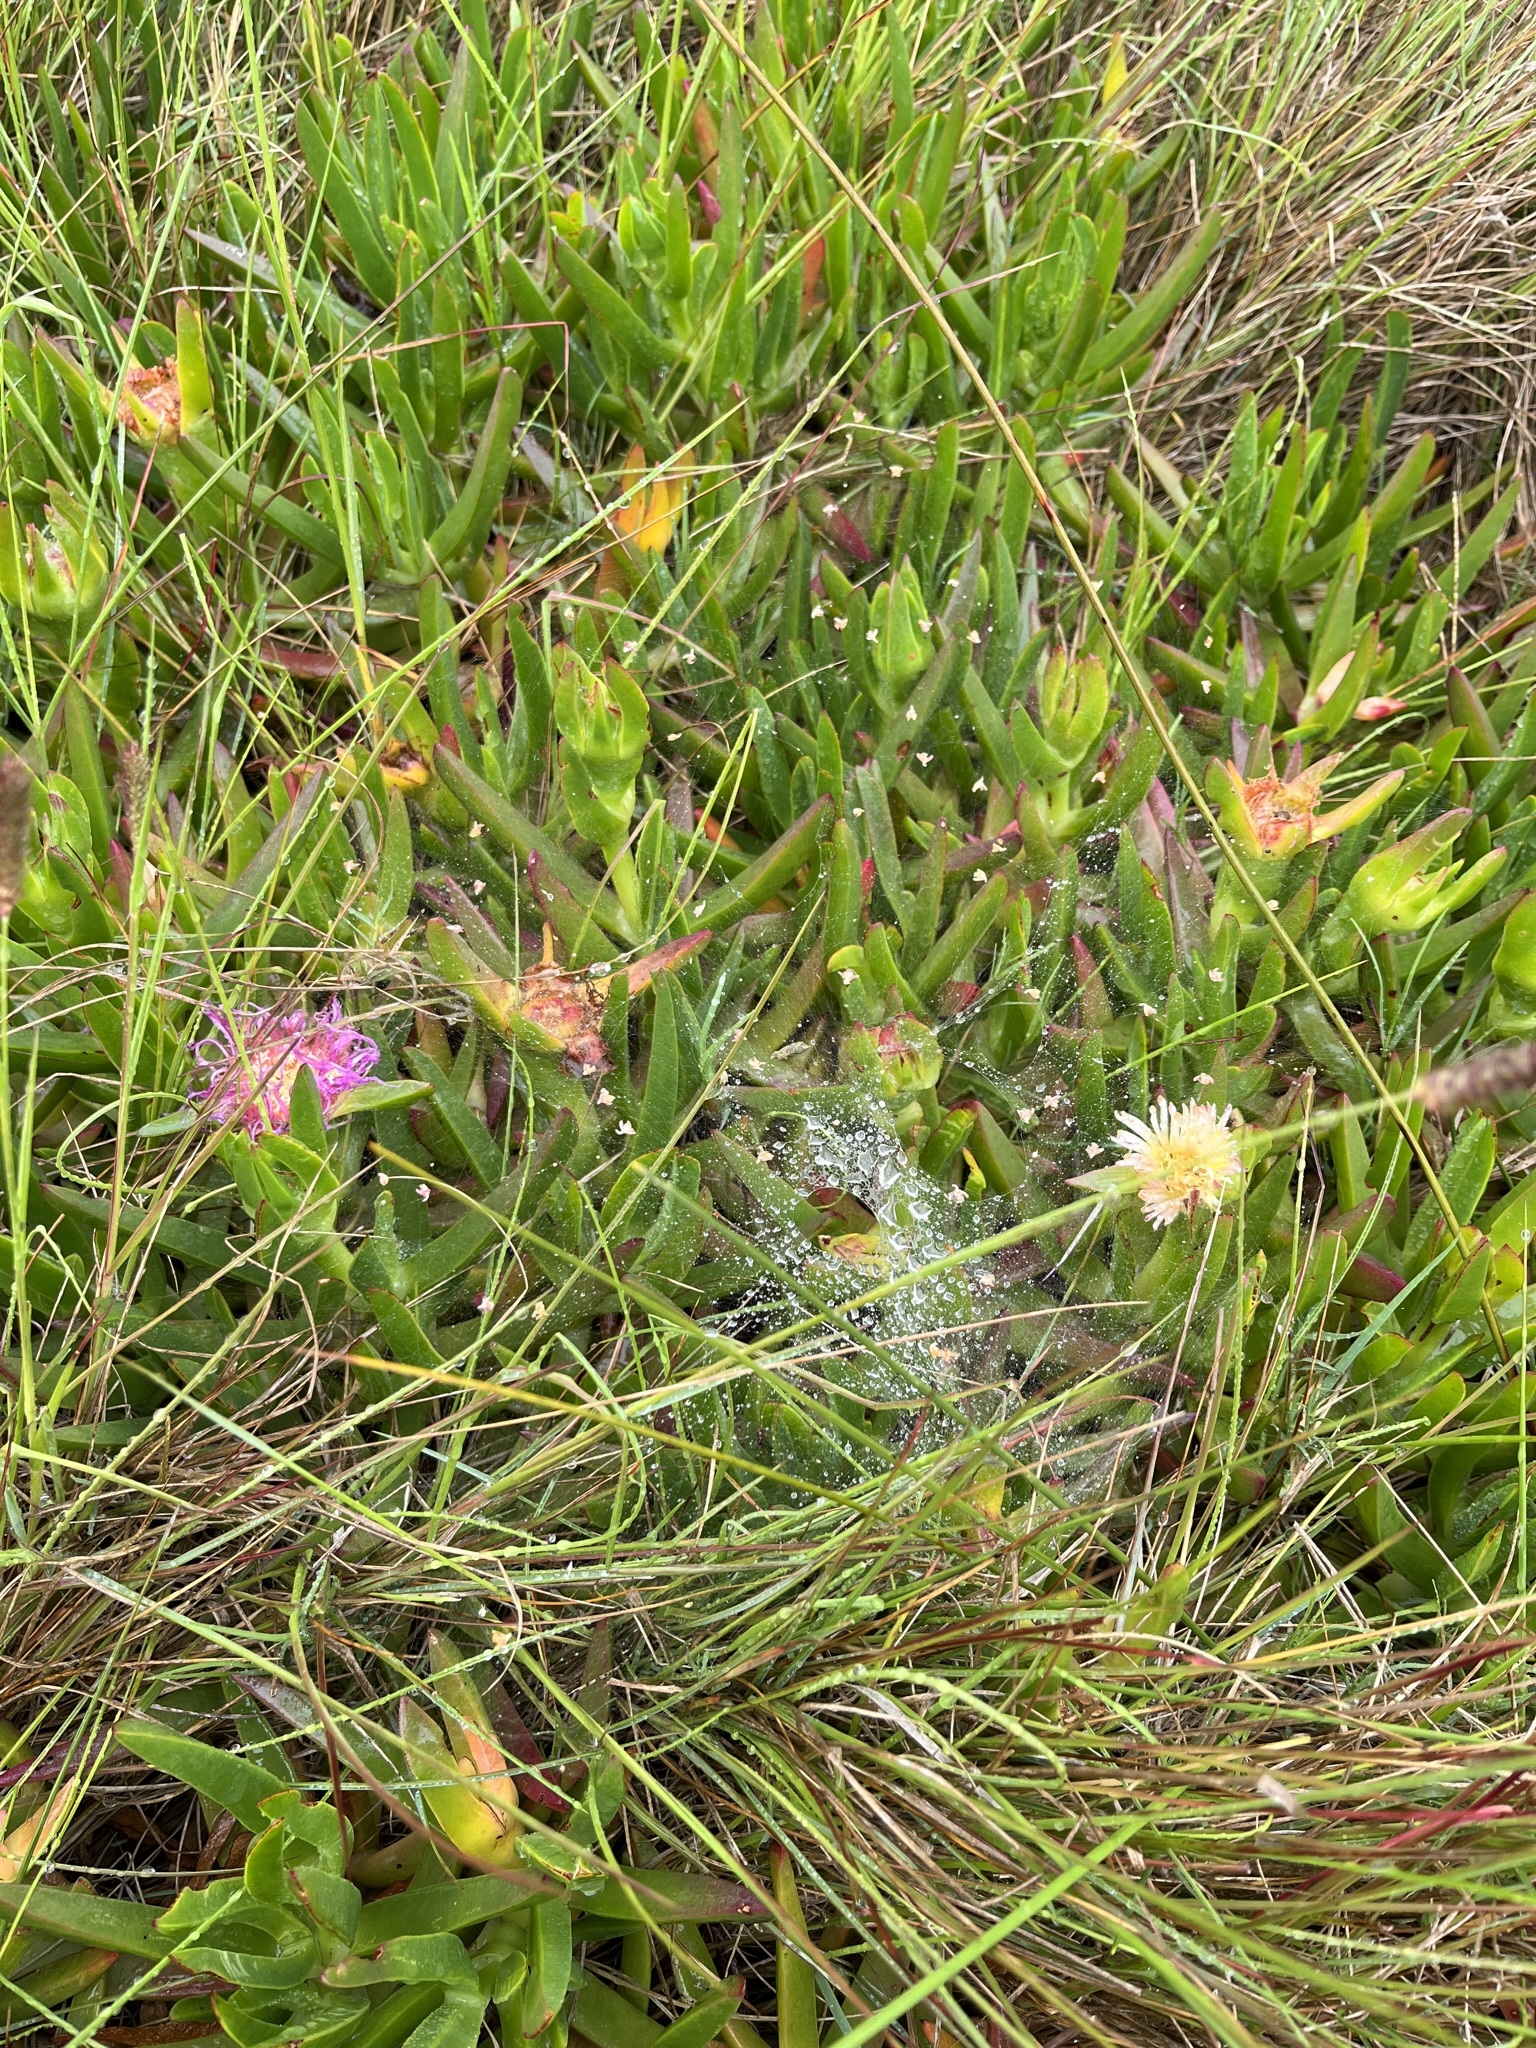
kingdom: Plantae
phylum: Tracheophyta
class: Magnoliopsida
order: Caryophyllales
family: Aizoaceae
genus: Carpobrotus
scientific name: Carpobrotus edulis
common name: Hottentot-fig
